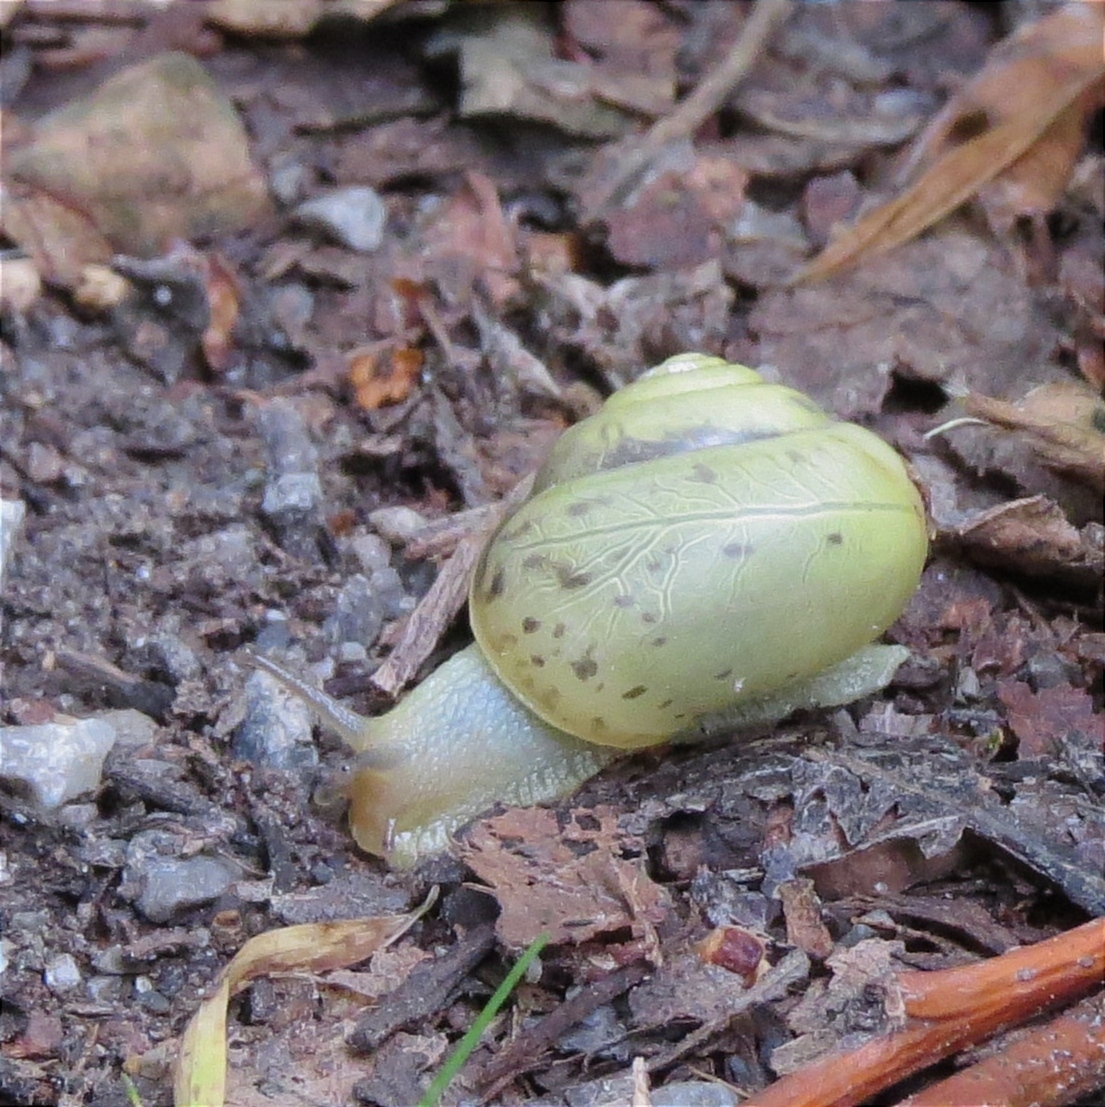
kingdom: Animalia
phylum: Mollusca
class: Gastropoda
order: Stylommatophora
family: Camaenidae
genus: Fruticicola
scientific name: Fruticicola fruticum
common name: Bush snail
